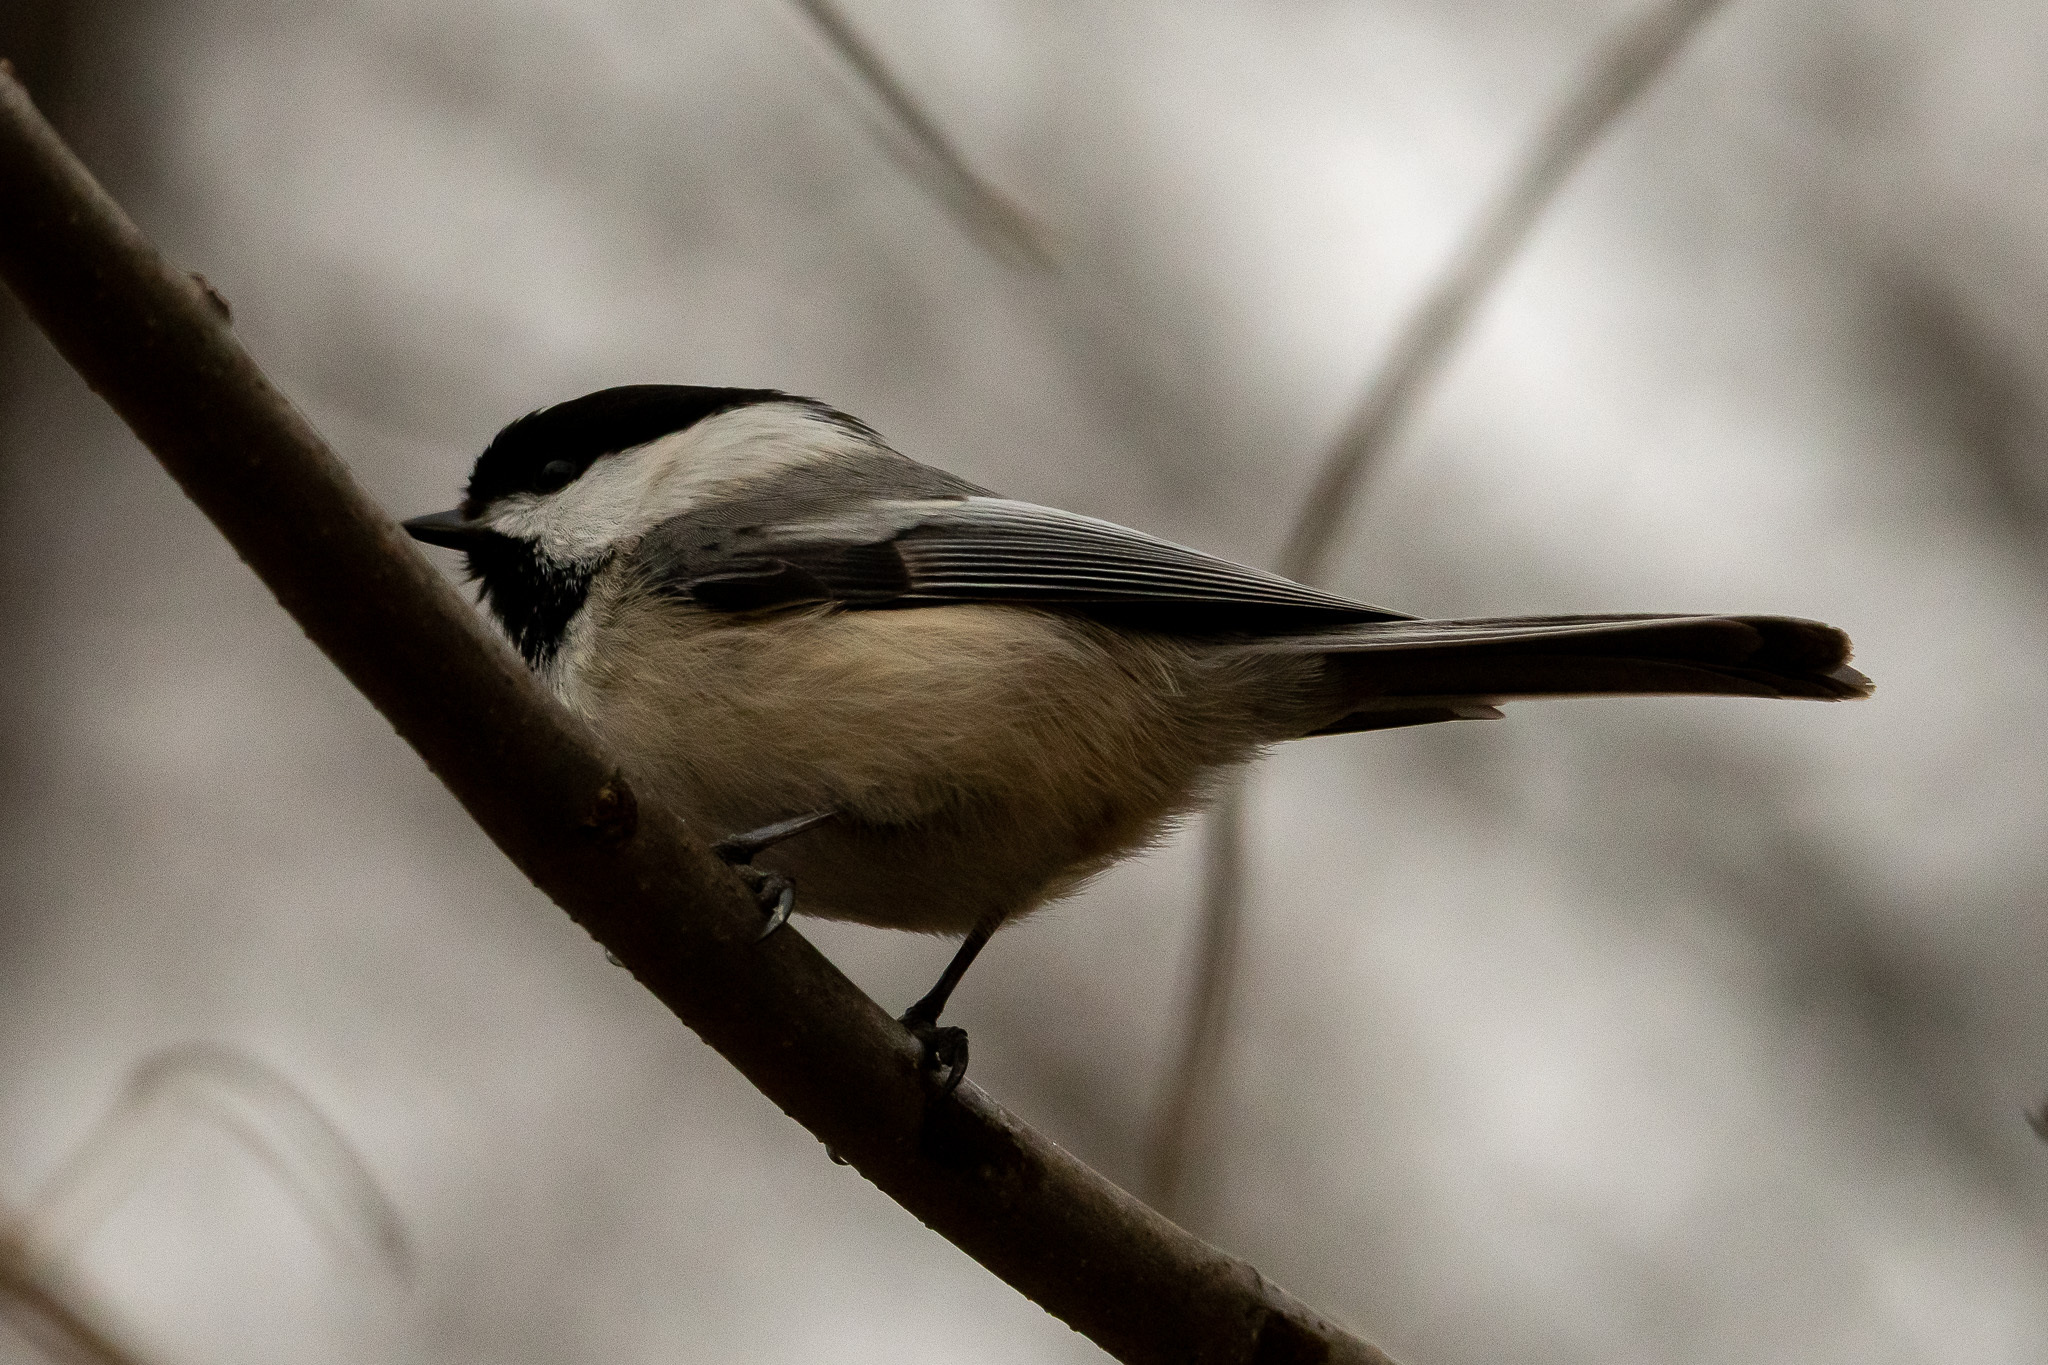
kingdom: Animalia
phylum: Chordata
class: Aves
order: Passeriformes
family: Paridae
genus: Poecile
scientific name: Poecile atricapillus
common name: Black-capped chickadee
